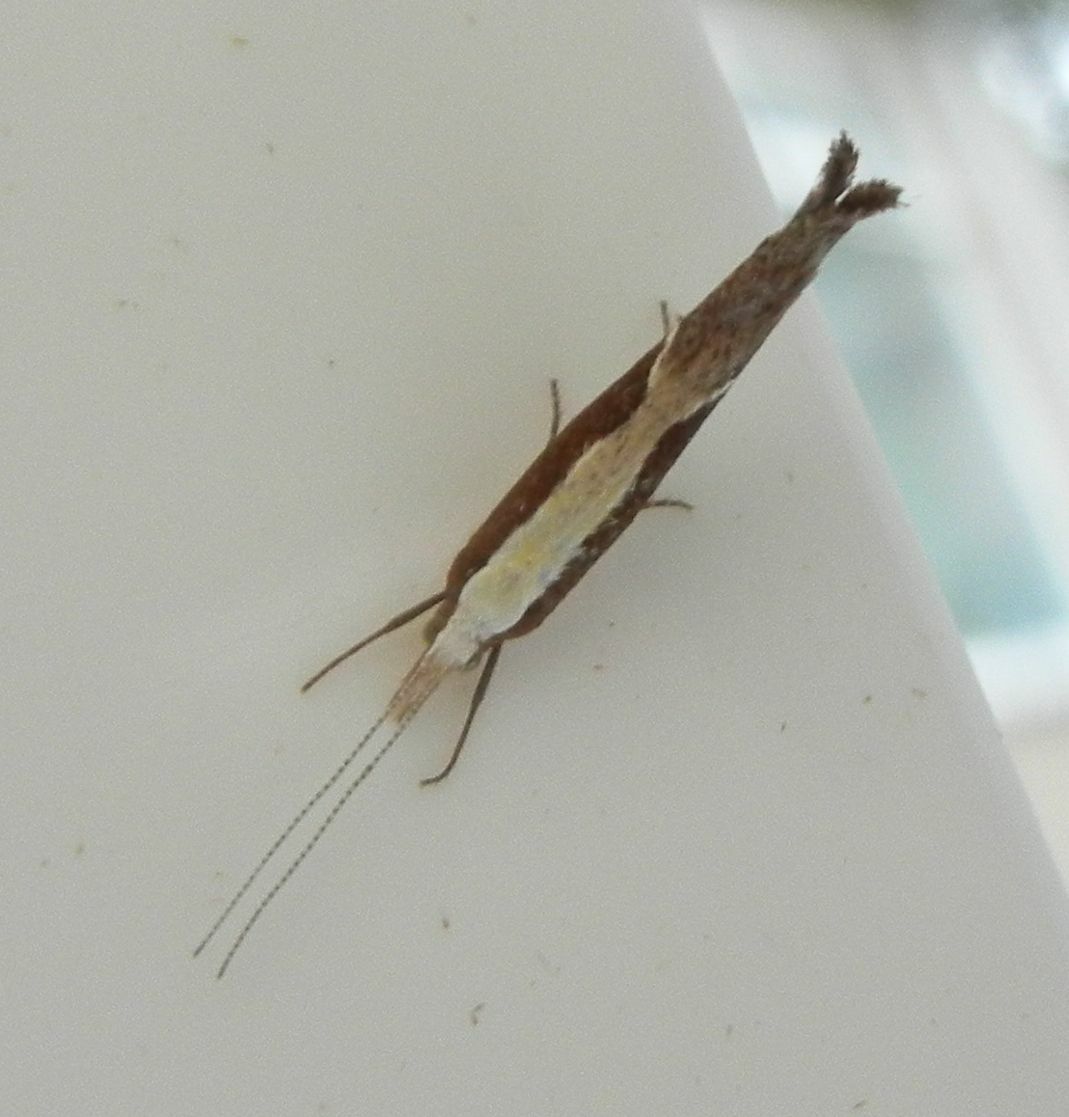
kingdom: Animalia
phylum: Arthropoda
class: Insecta
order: Lepidoptera
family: Ypsolophidae
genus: Ypsolopha
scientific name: Ypsolopha dentella
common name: Honeysuckle moth
